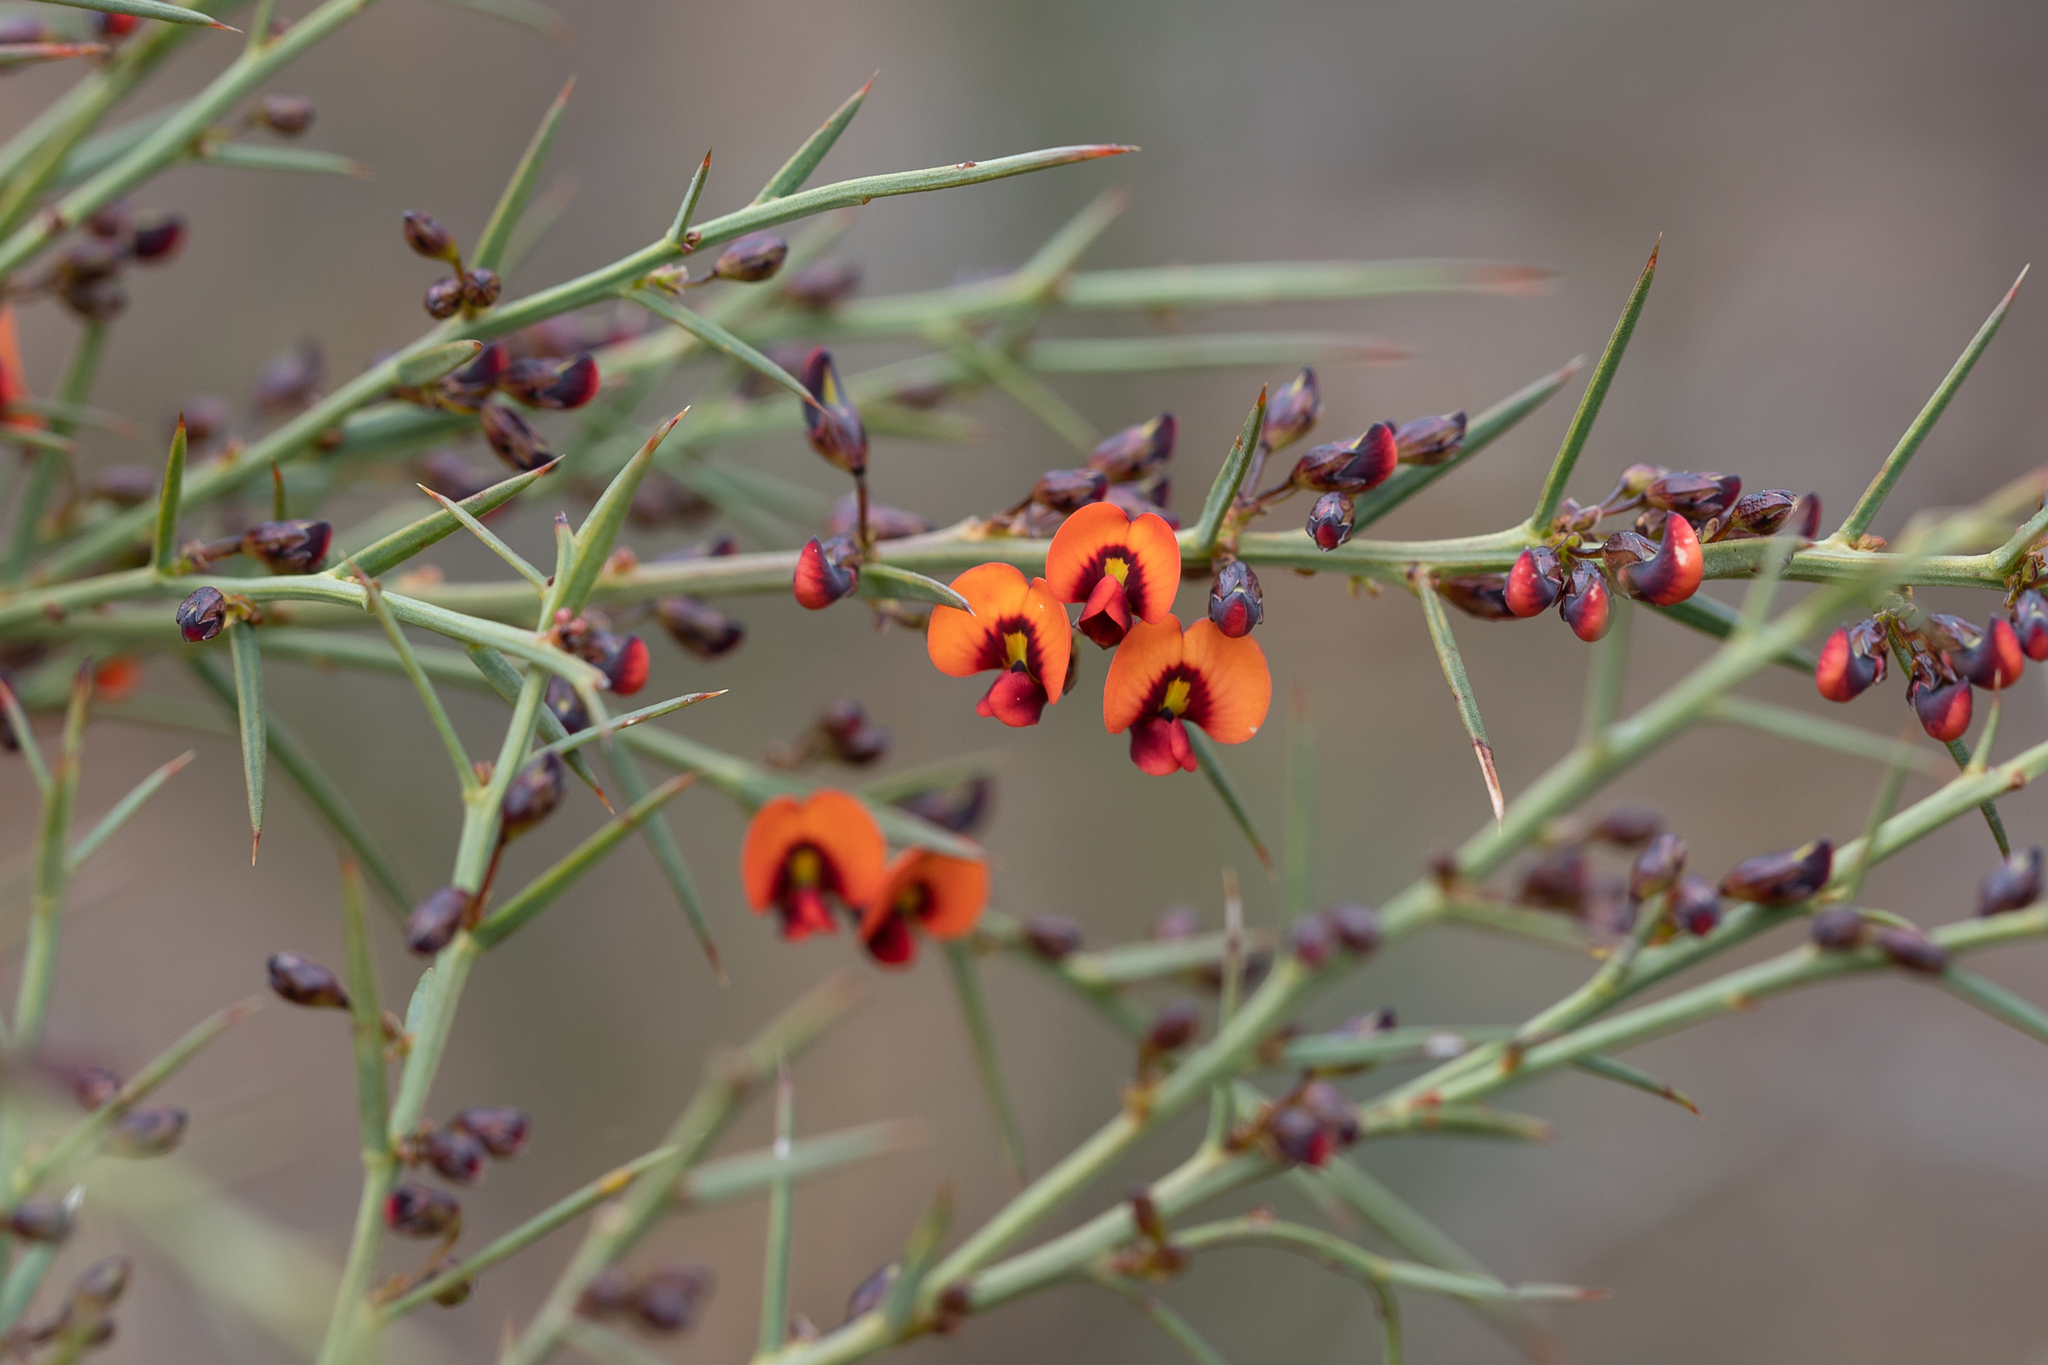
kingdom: Plantae
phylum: Tracheophyta
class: Magnoliopsida
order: Fabales
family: Fabaceae
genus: Daviesia
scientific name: Daviesia ulicifolia
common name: Gorse bitter-pea
